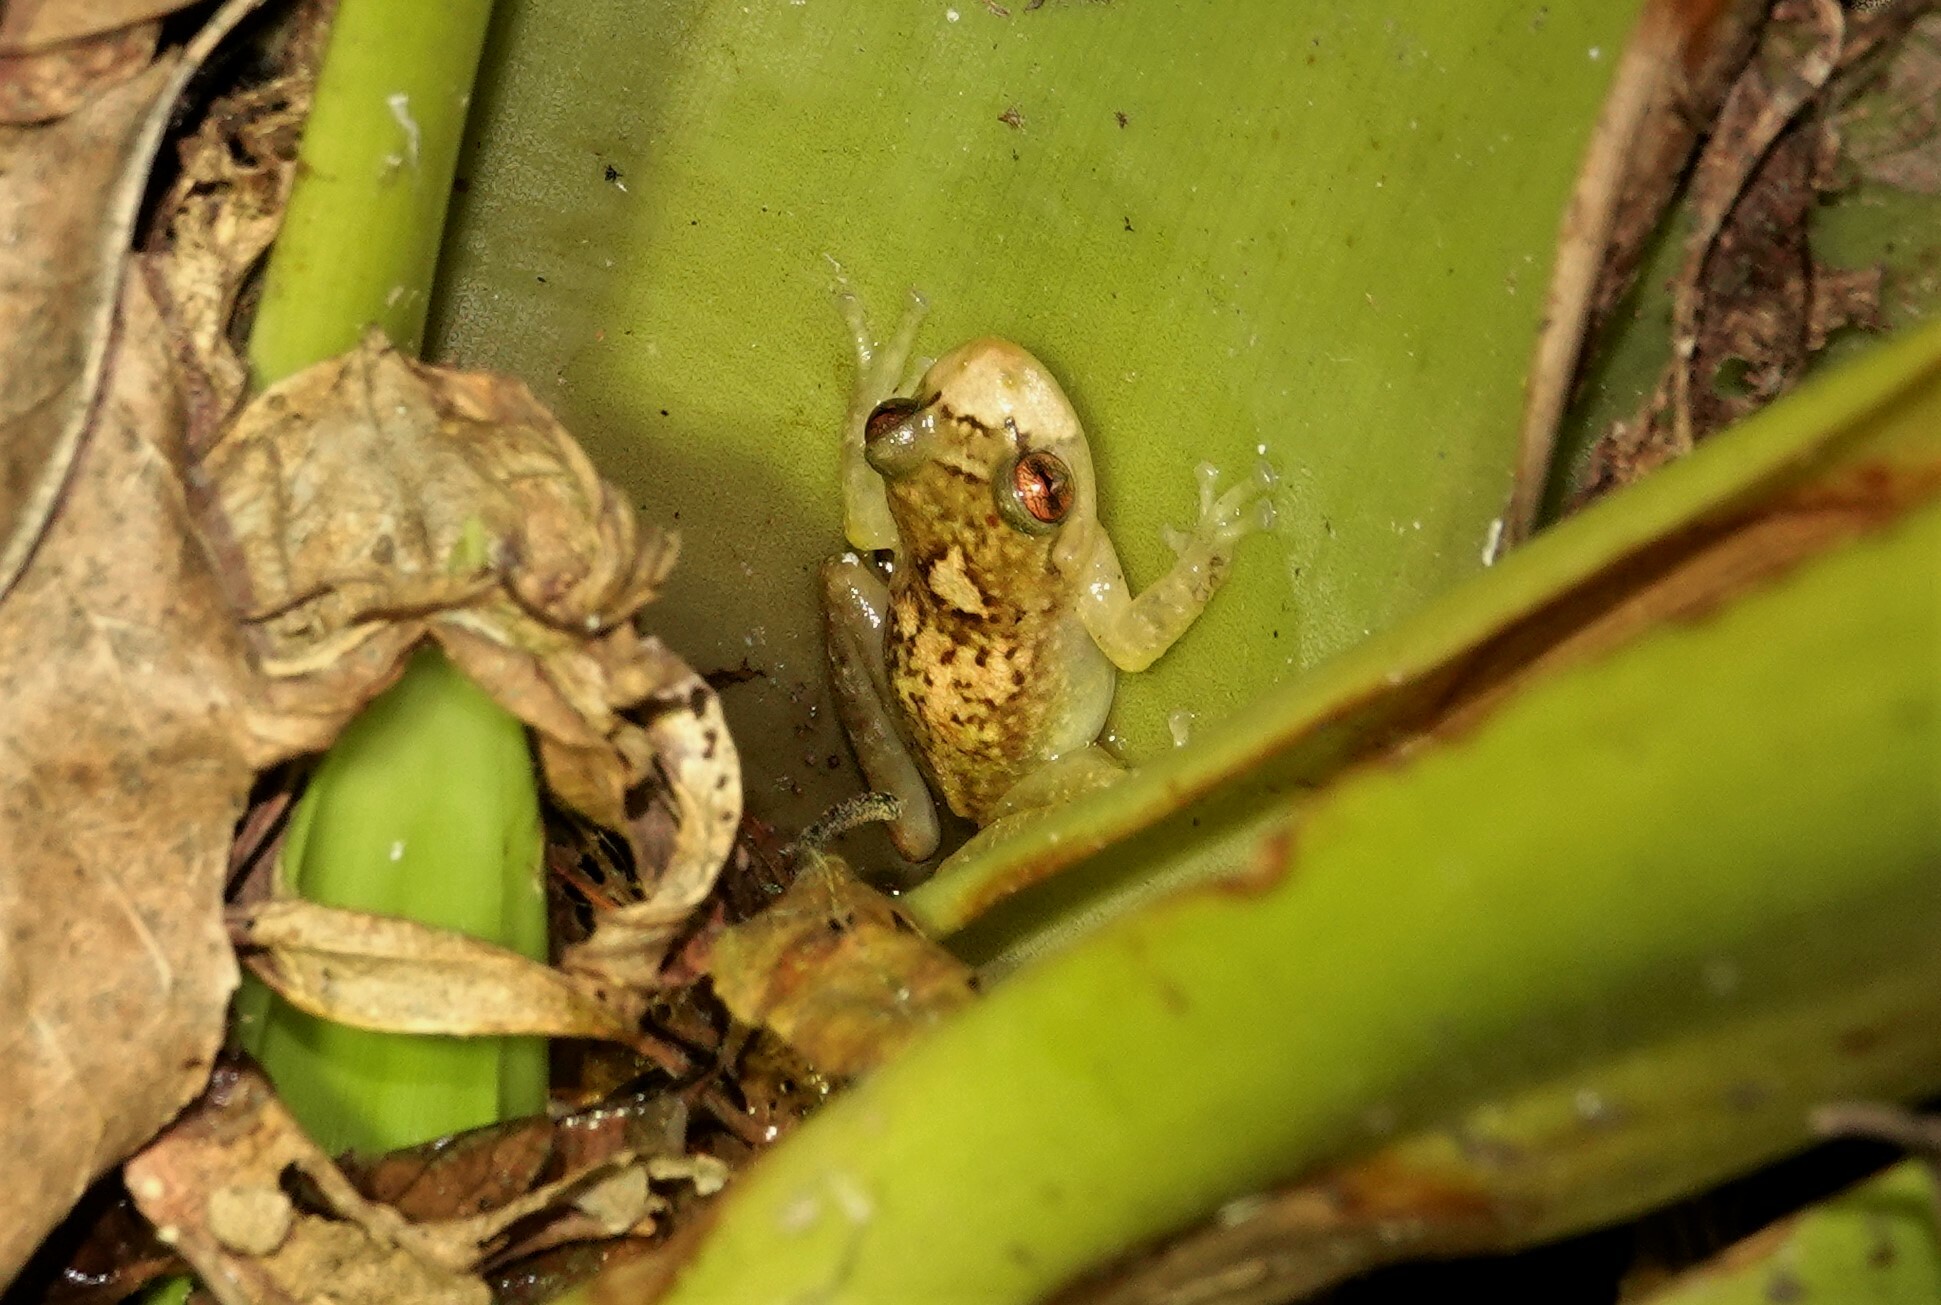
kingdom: Animalia
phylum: Chordata
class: Amphibia
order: Anura
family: Craugastoridae
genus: Tachiramantis
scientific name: Tachiramantis
